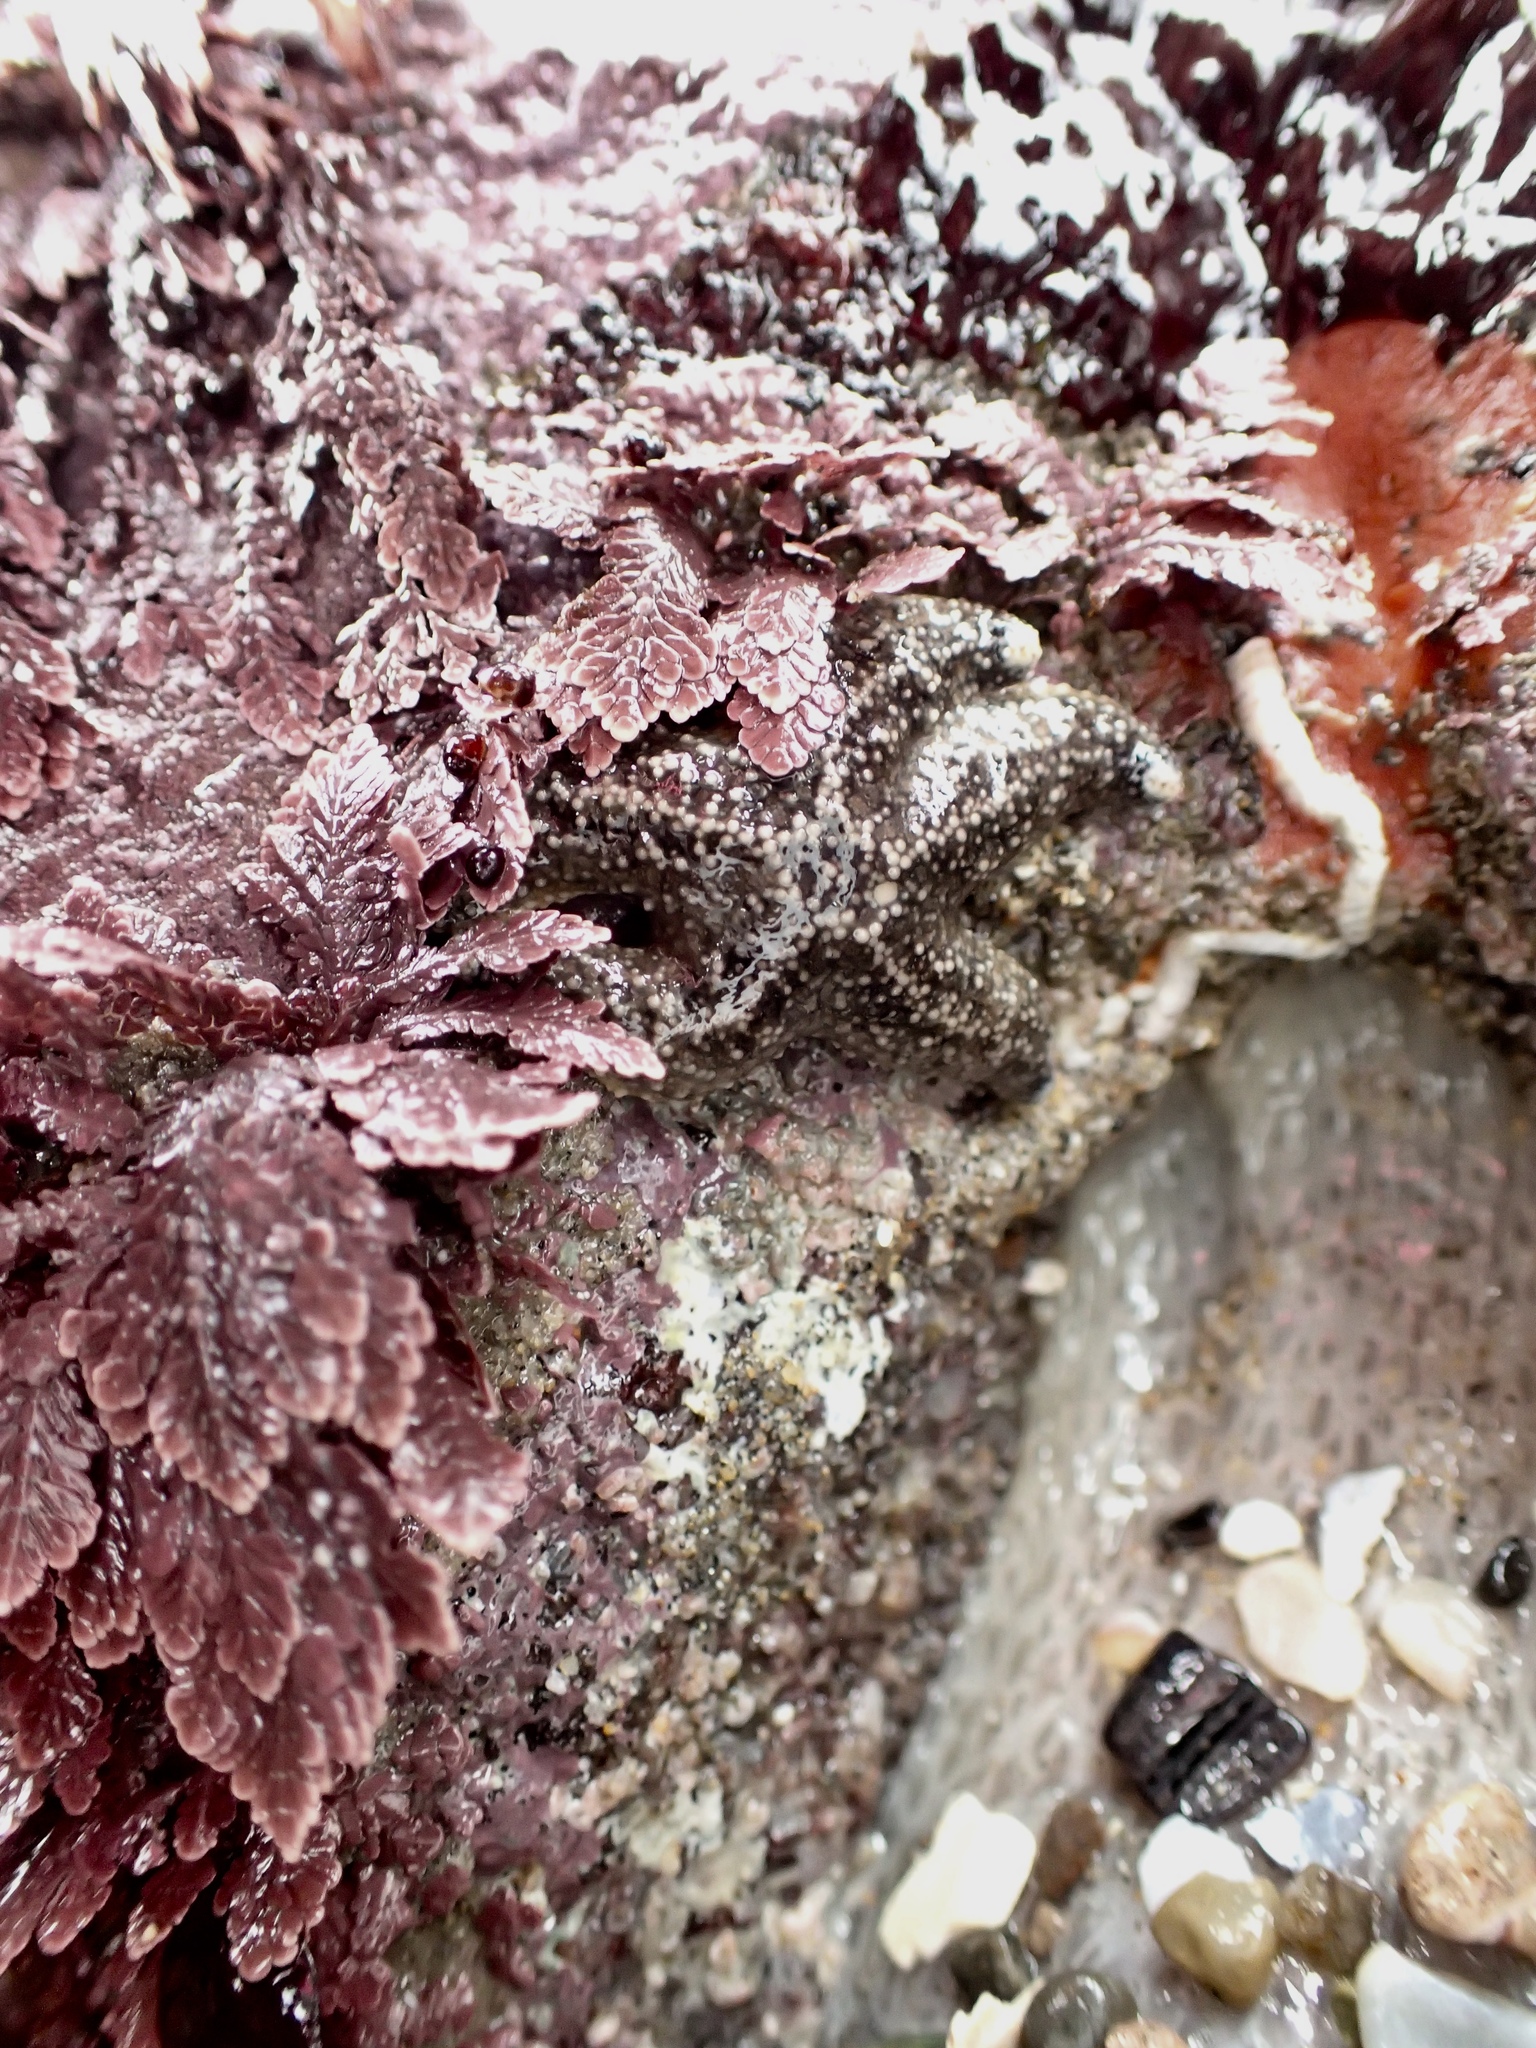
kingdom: Animalia
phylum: Echinodermata
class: Asteroidea
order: Forcipulatida
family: Asteriidae
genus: Pisaster
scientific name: Pisaster ochraceus
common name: Ochre stars
